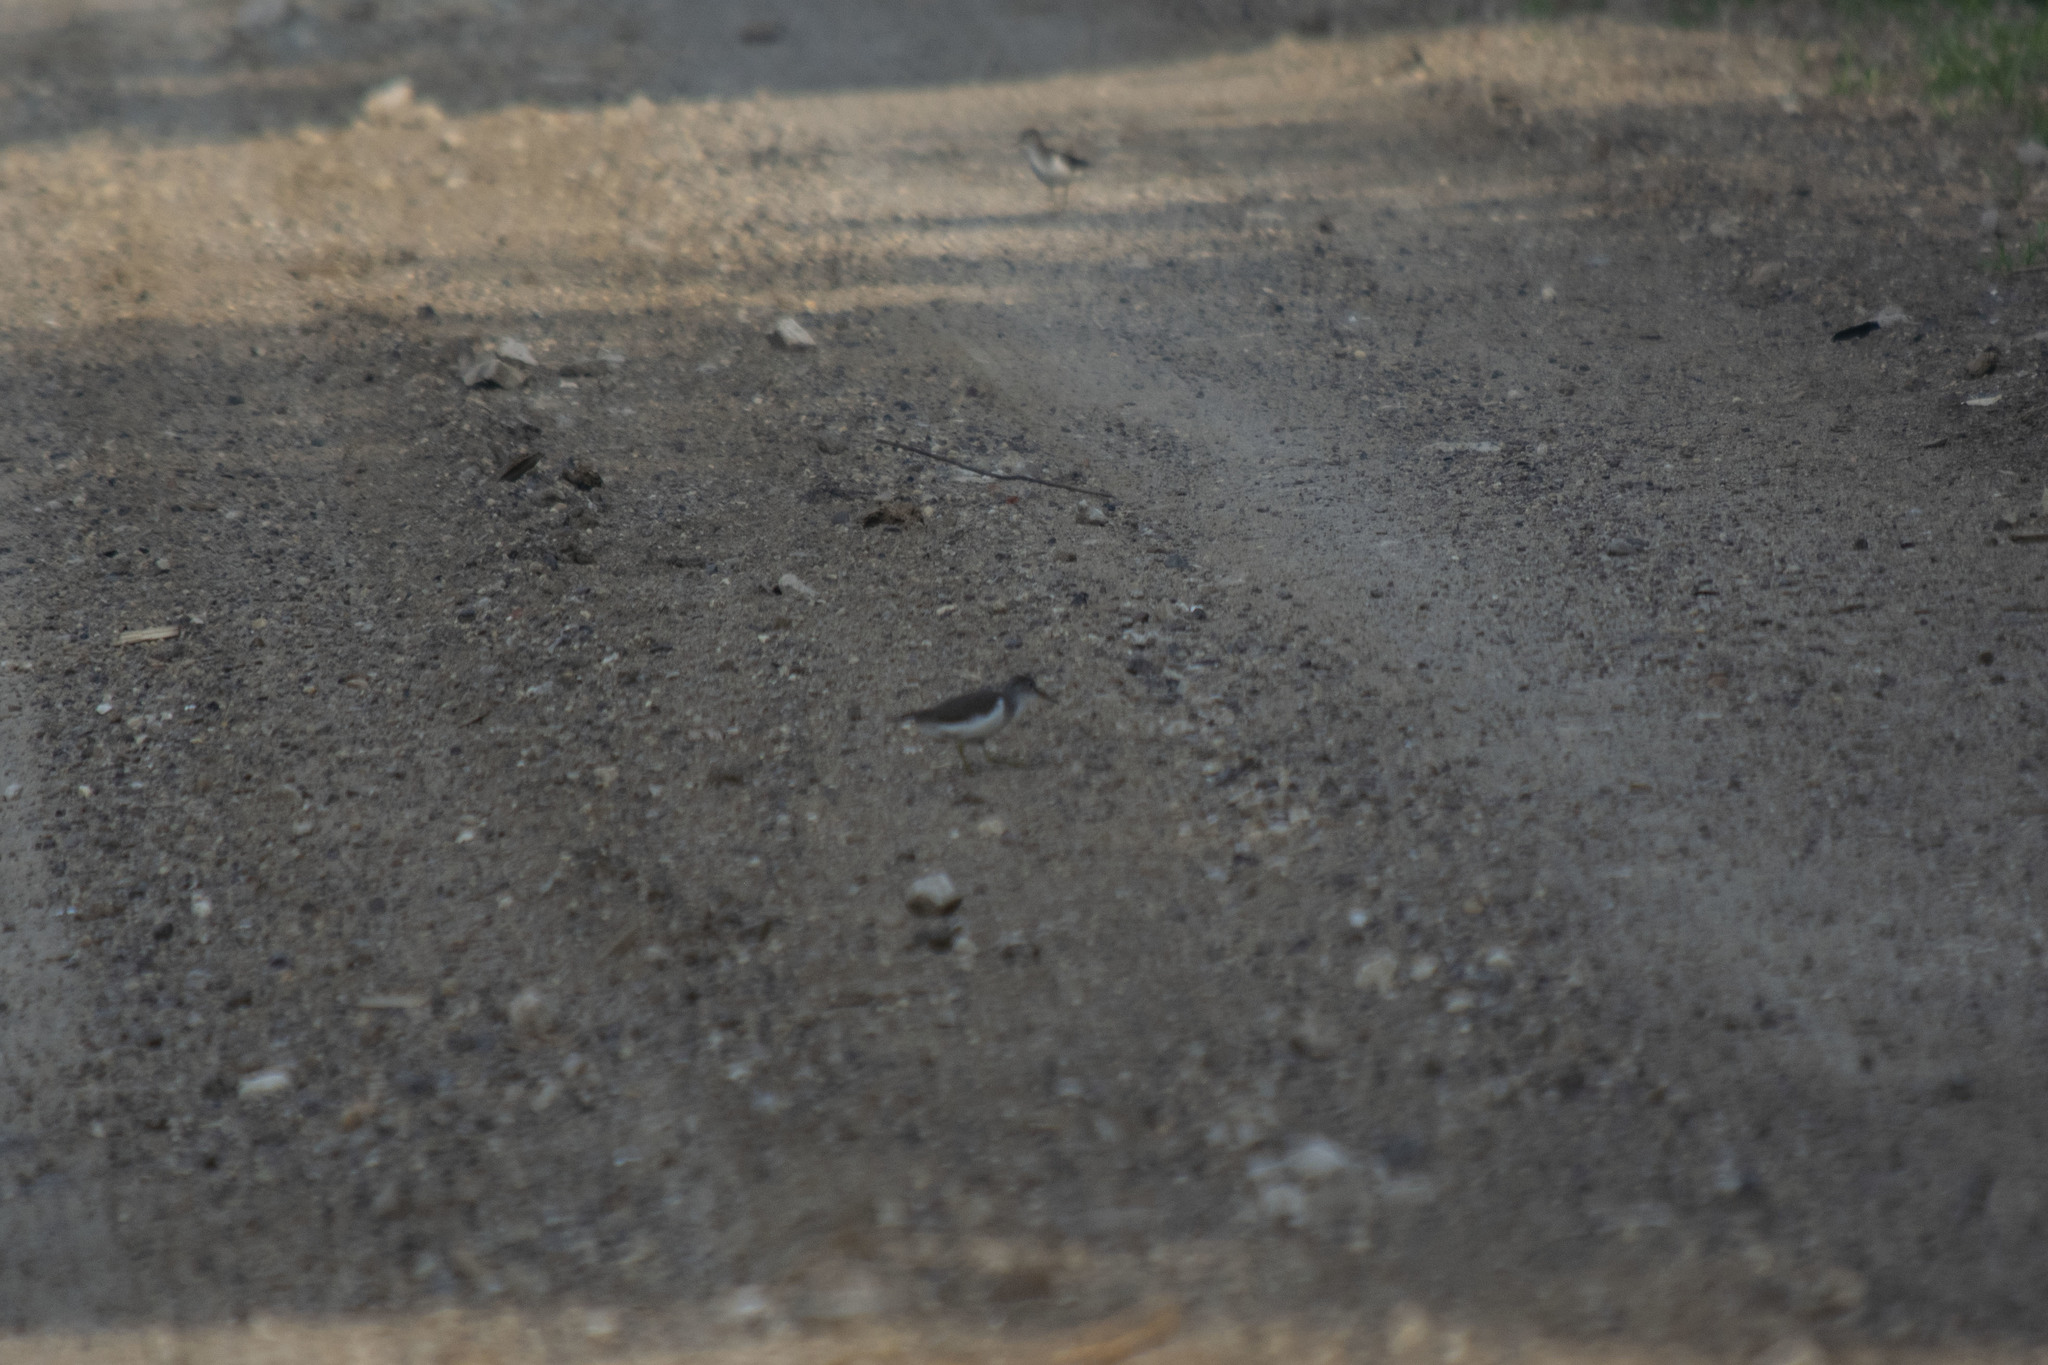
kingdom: Animalia
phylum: Chordata
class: Aves
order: Charadriiformes
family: Scolopacidae
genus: Actitis
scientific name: Actitis hypoleucos
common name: Common sandpiper
